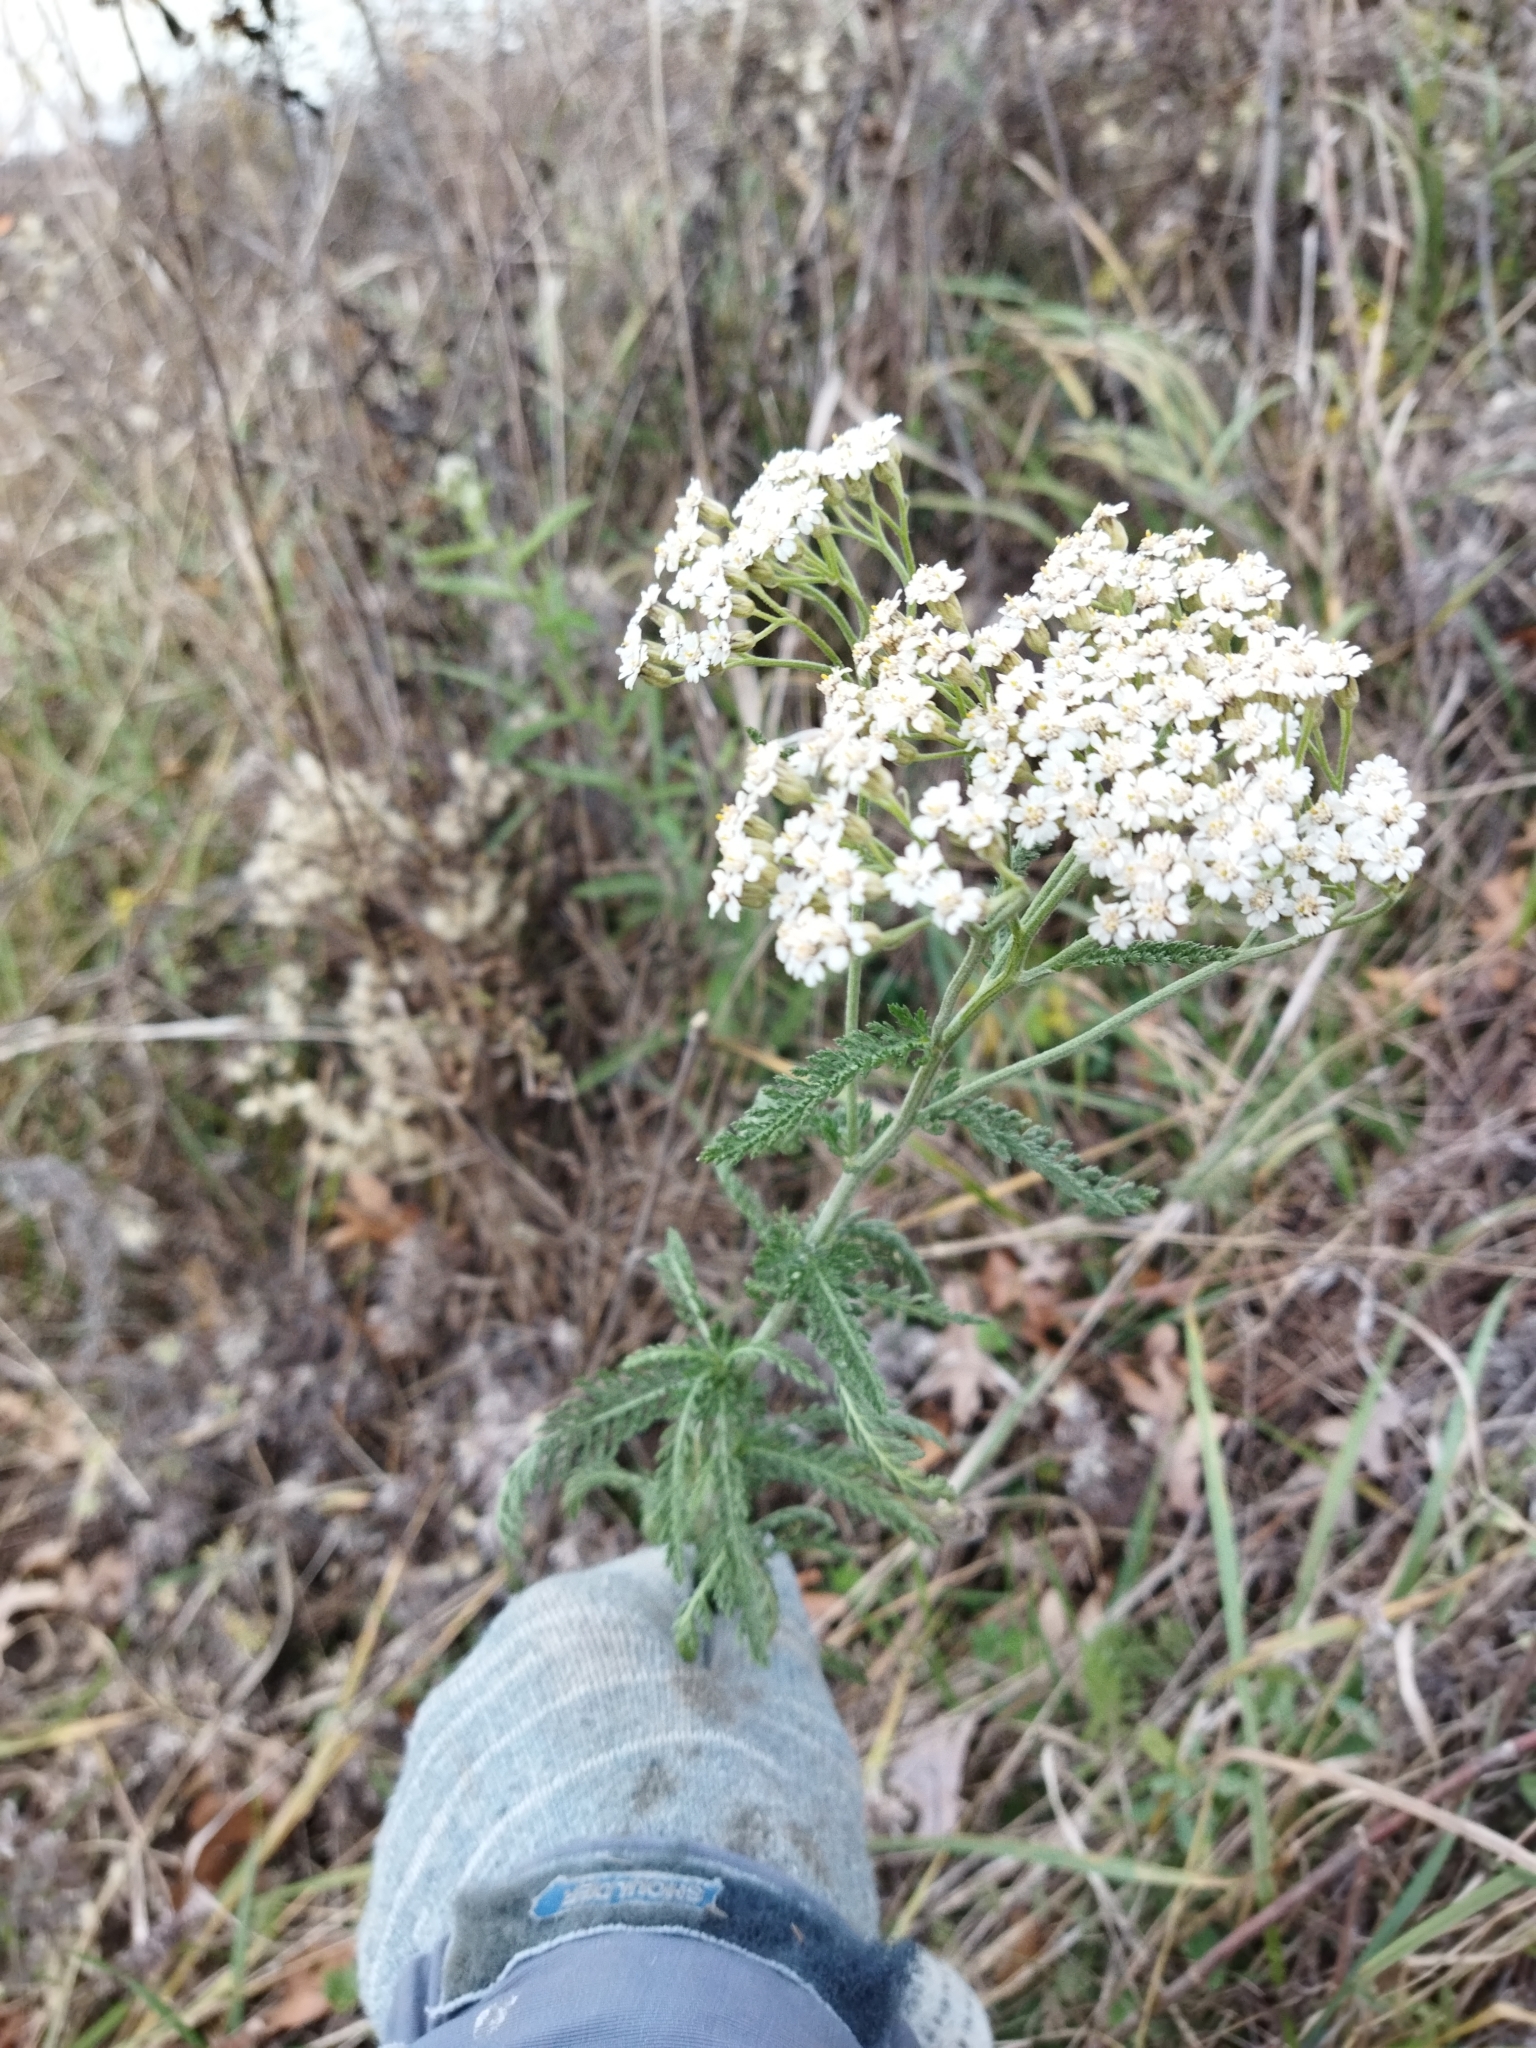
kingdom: Plantae
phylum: Tracheophyta
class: Magnoliopsida
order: Asterales
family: Asteraceae
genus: Achillea
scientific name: Achillea millefolium
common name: Yarrow
